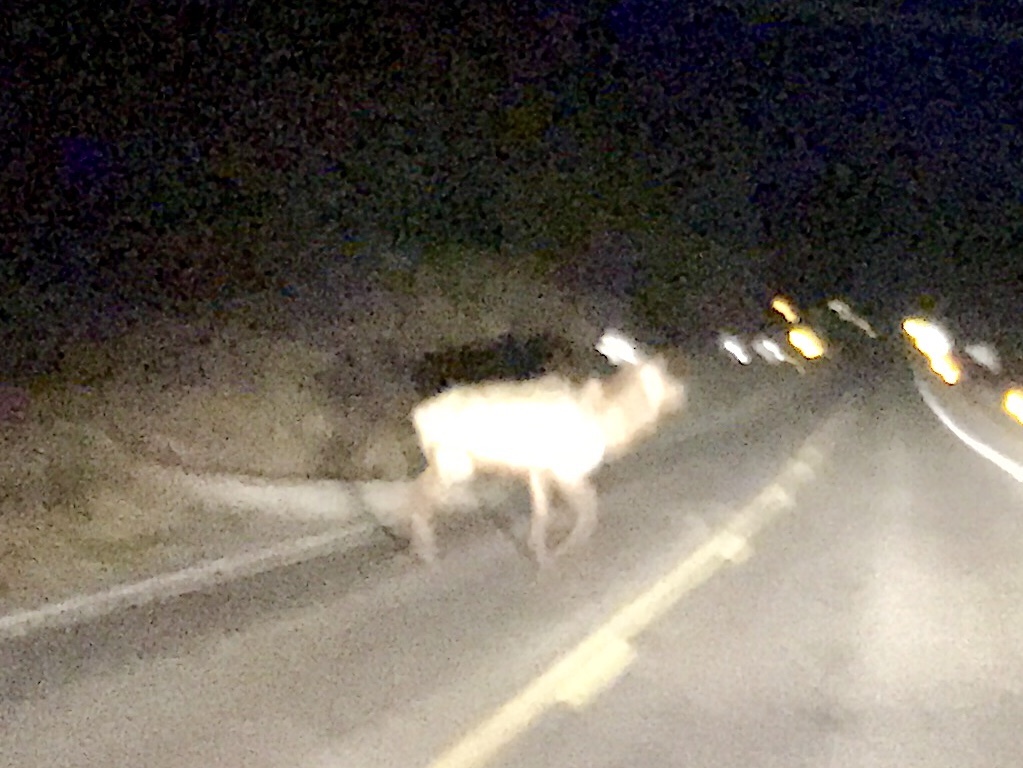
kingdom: Animalia
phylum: Chordata
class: Mammalia
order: Artiodactyla
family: Cervidae
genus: Cervus
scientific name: Cervus elaphus
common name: Red deer
